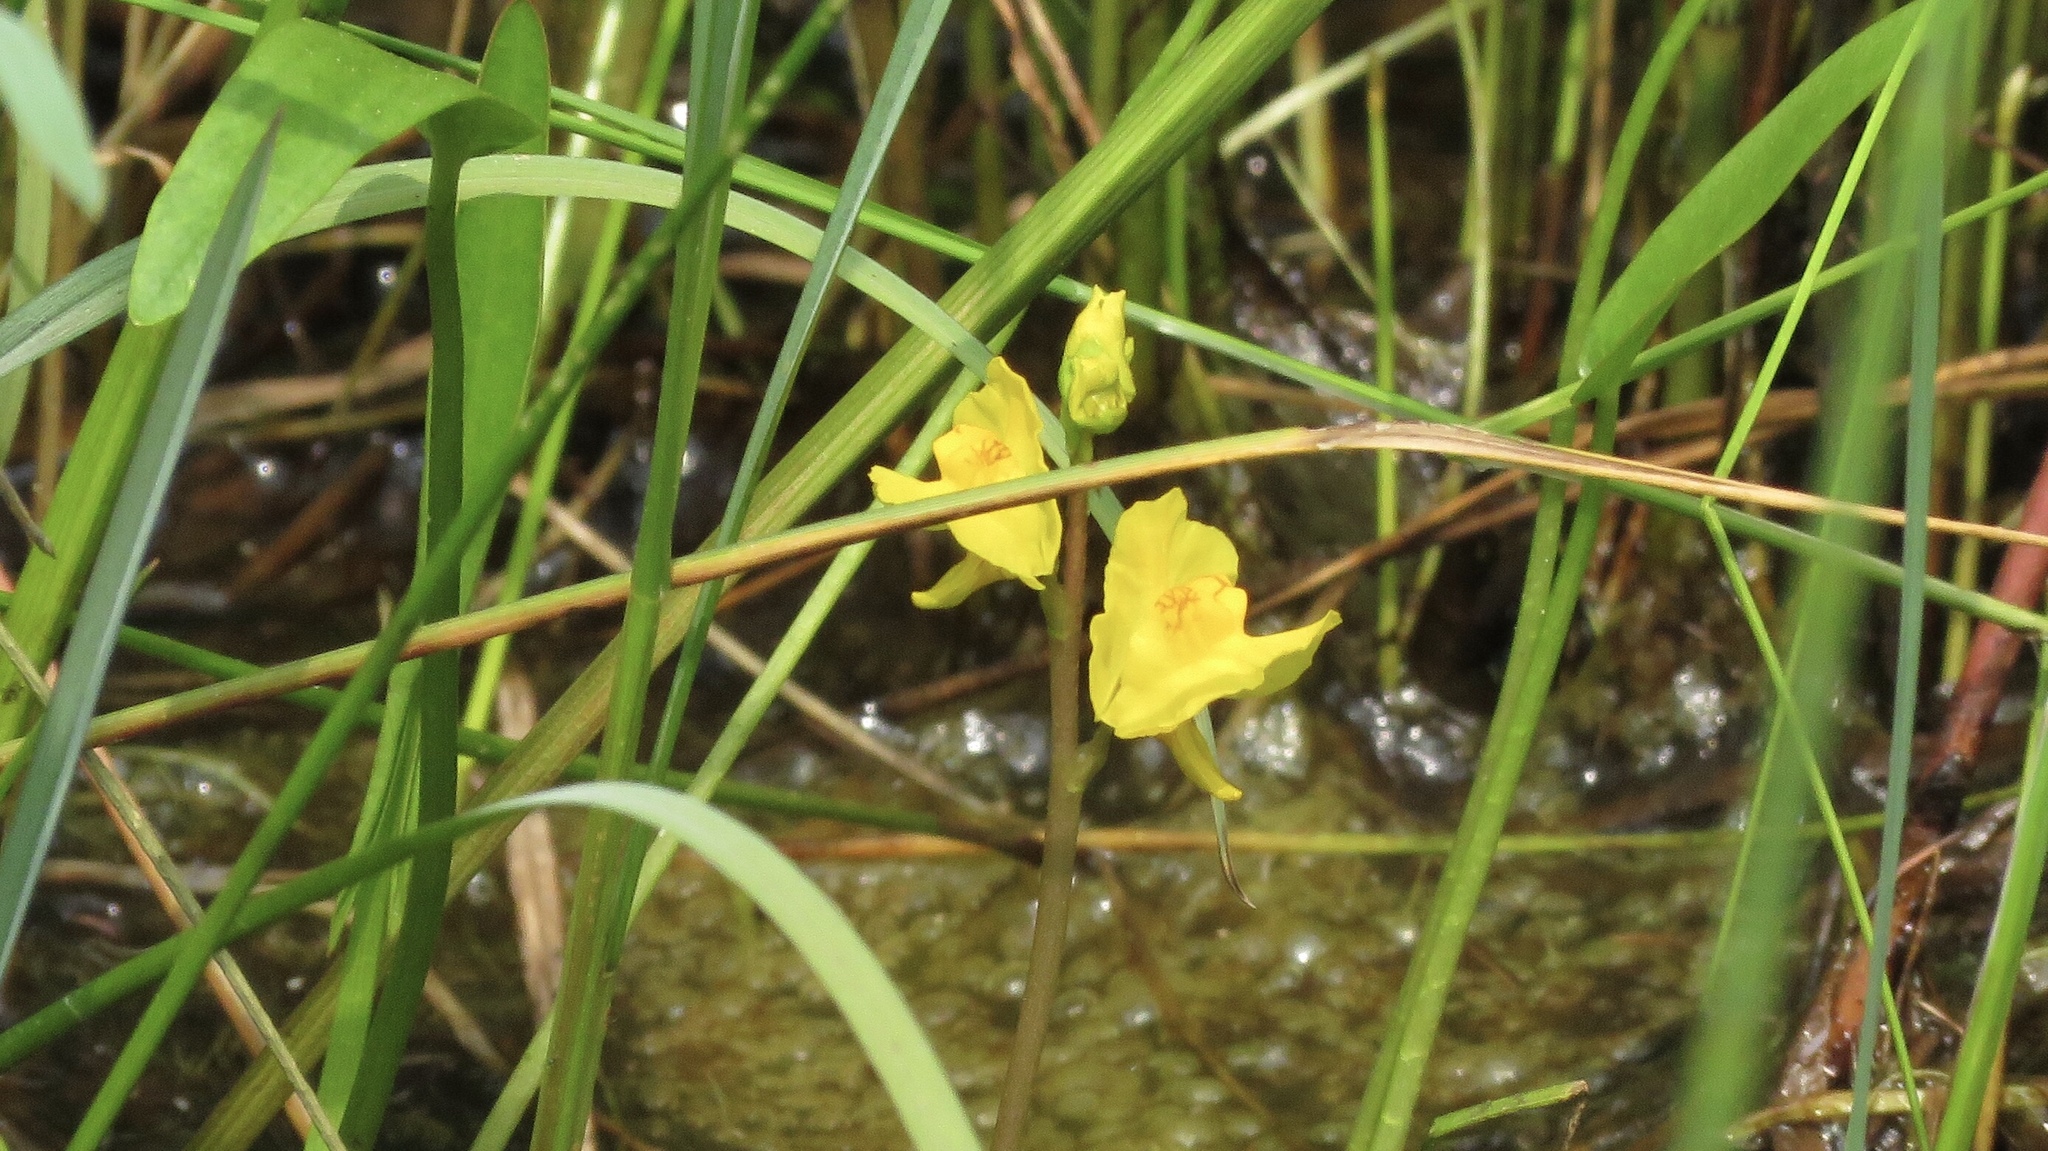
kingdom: Plantae
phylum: Tracheophyta
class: Magnoliopsida
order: Lamiales
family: Lentibulariaceae
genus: Utricularia
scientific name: Utricularia macrorhiza
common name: Common bladderwort
